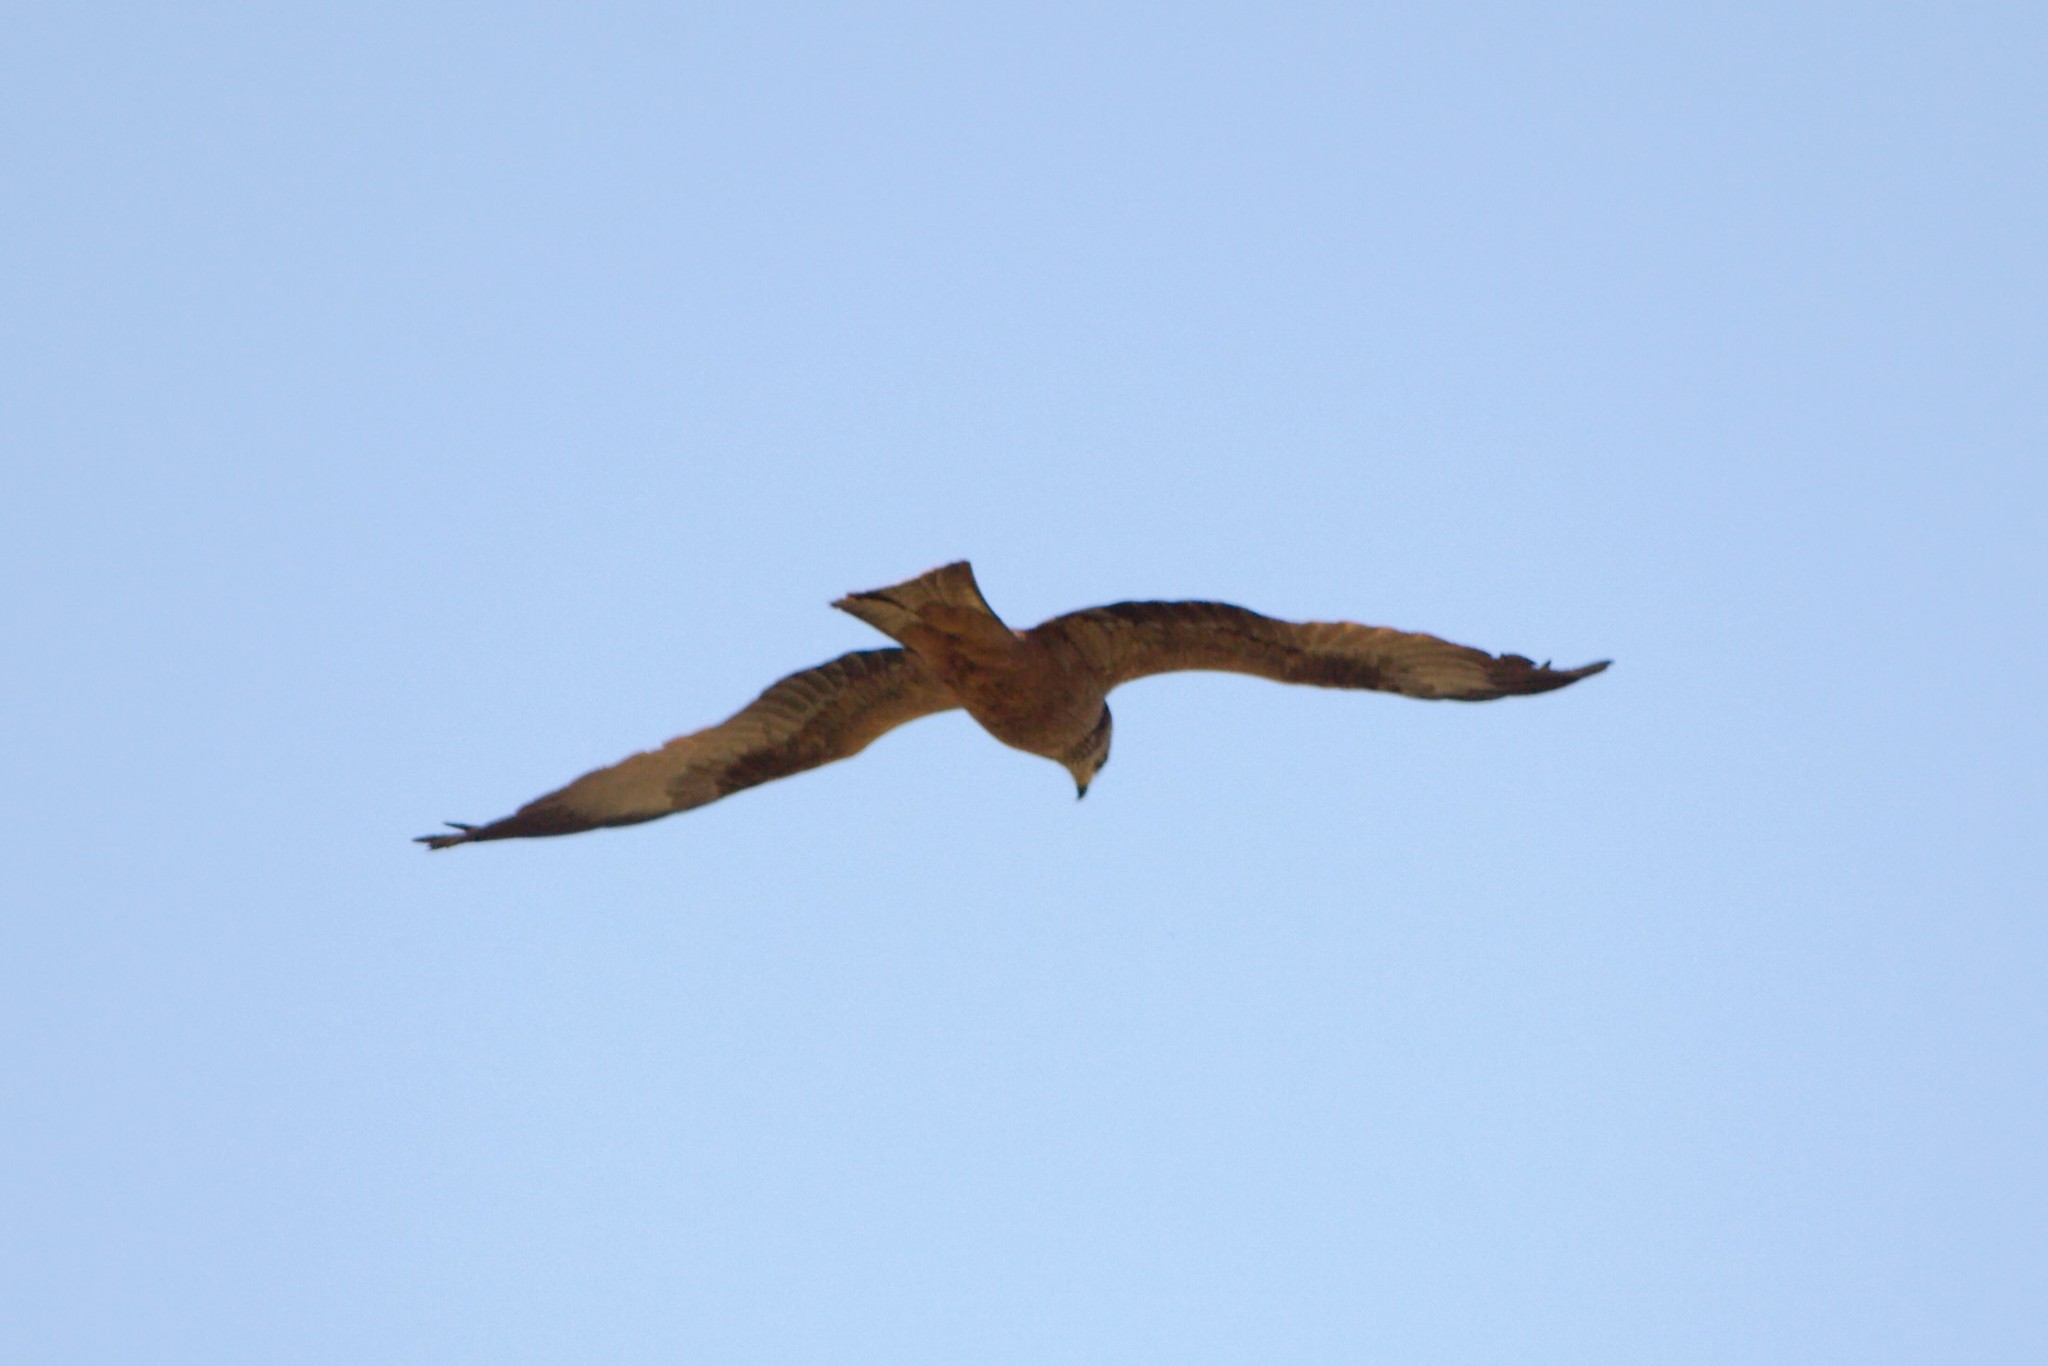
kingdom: Animalia
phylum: Chordata
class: Aves
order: Accipitriformes
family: Accipitridae
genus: Milvus
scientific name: Milvus migrans
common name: Black kite
